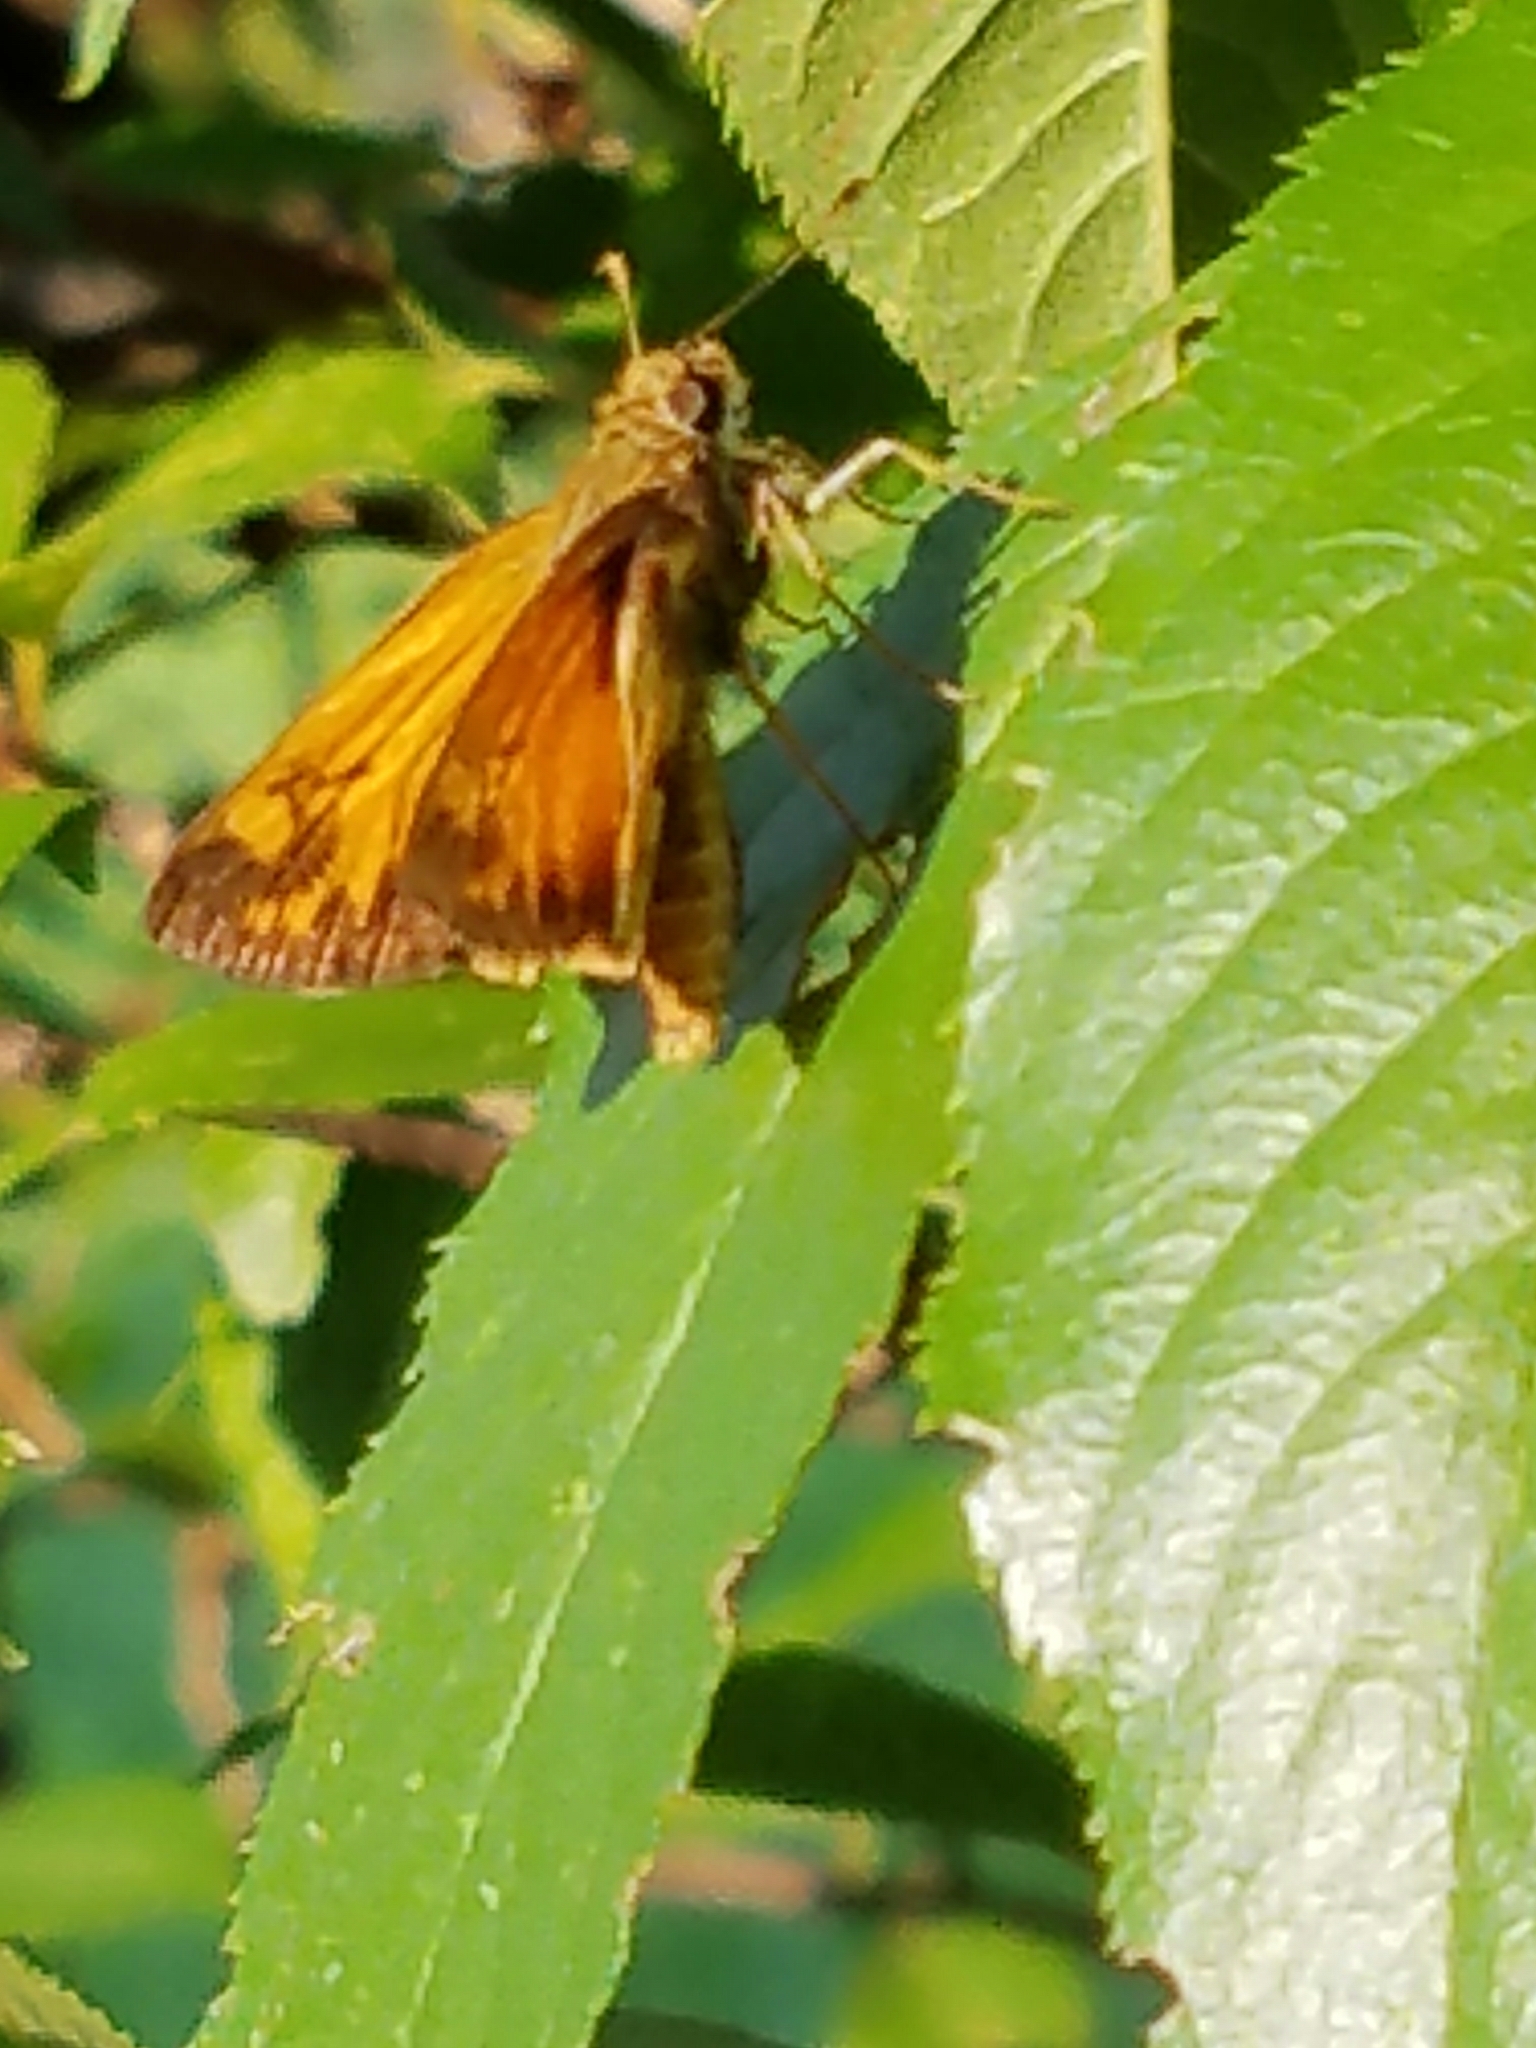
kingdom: Animalia
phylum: Arthropoda
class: Insecta
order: Lepidoptera
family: Hesperiidae
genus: Lon
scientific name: Lon zabulon
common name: Zabulon skipper
